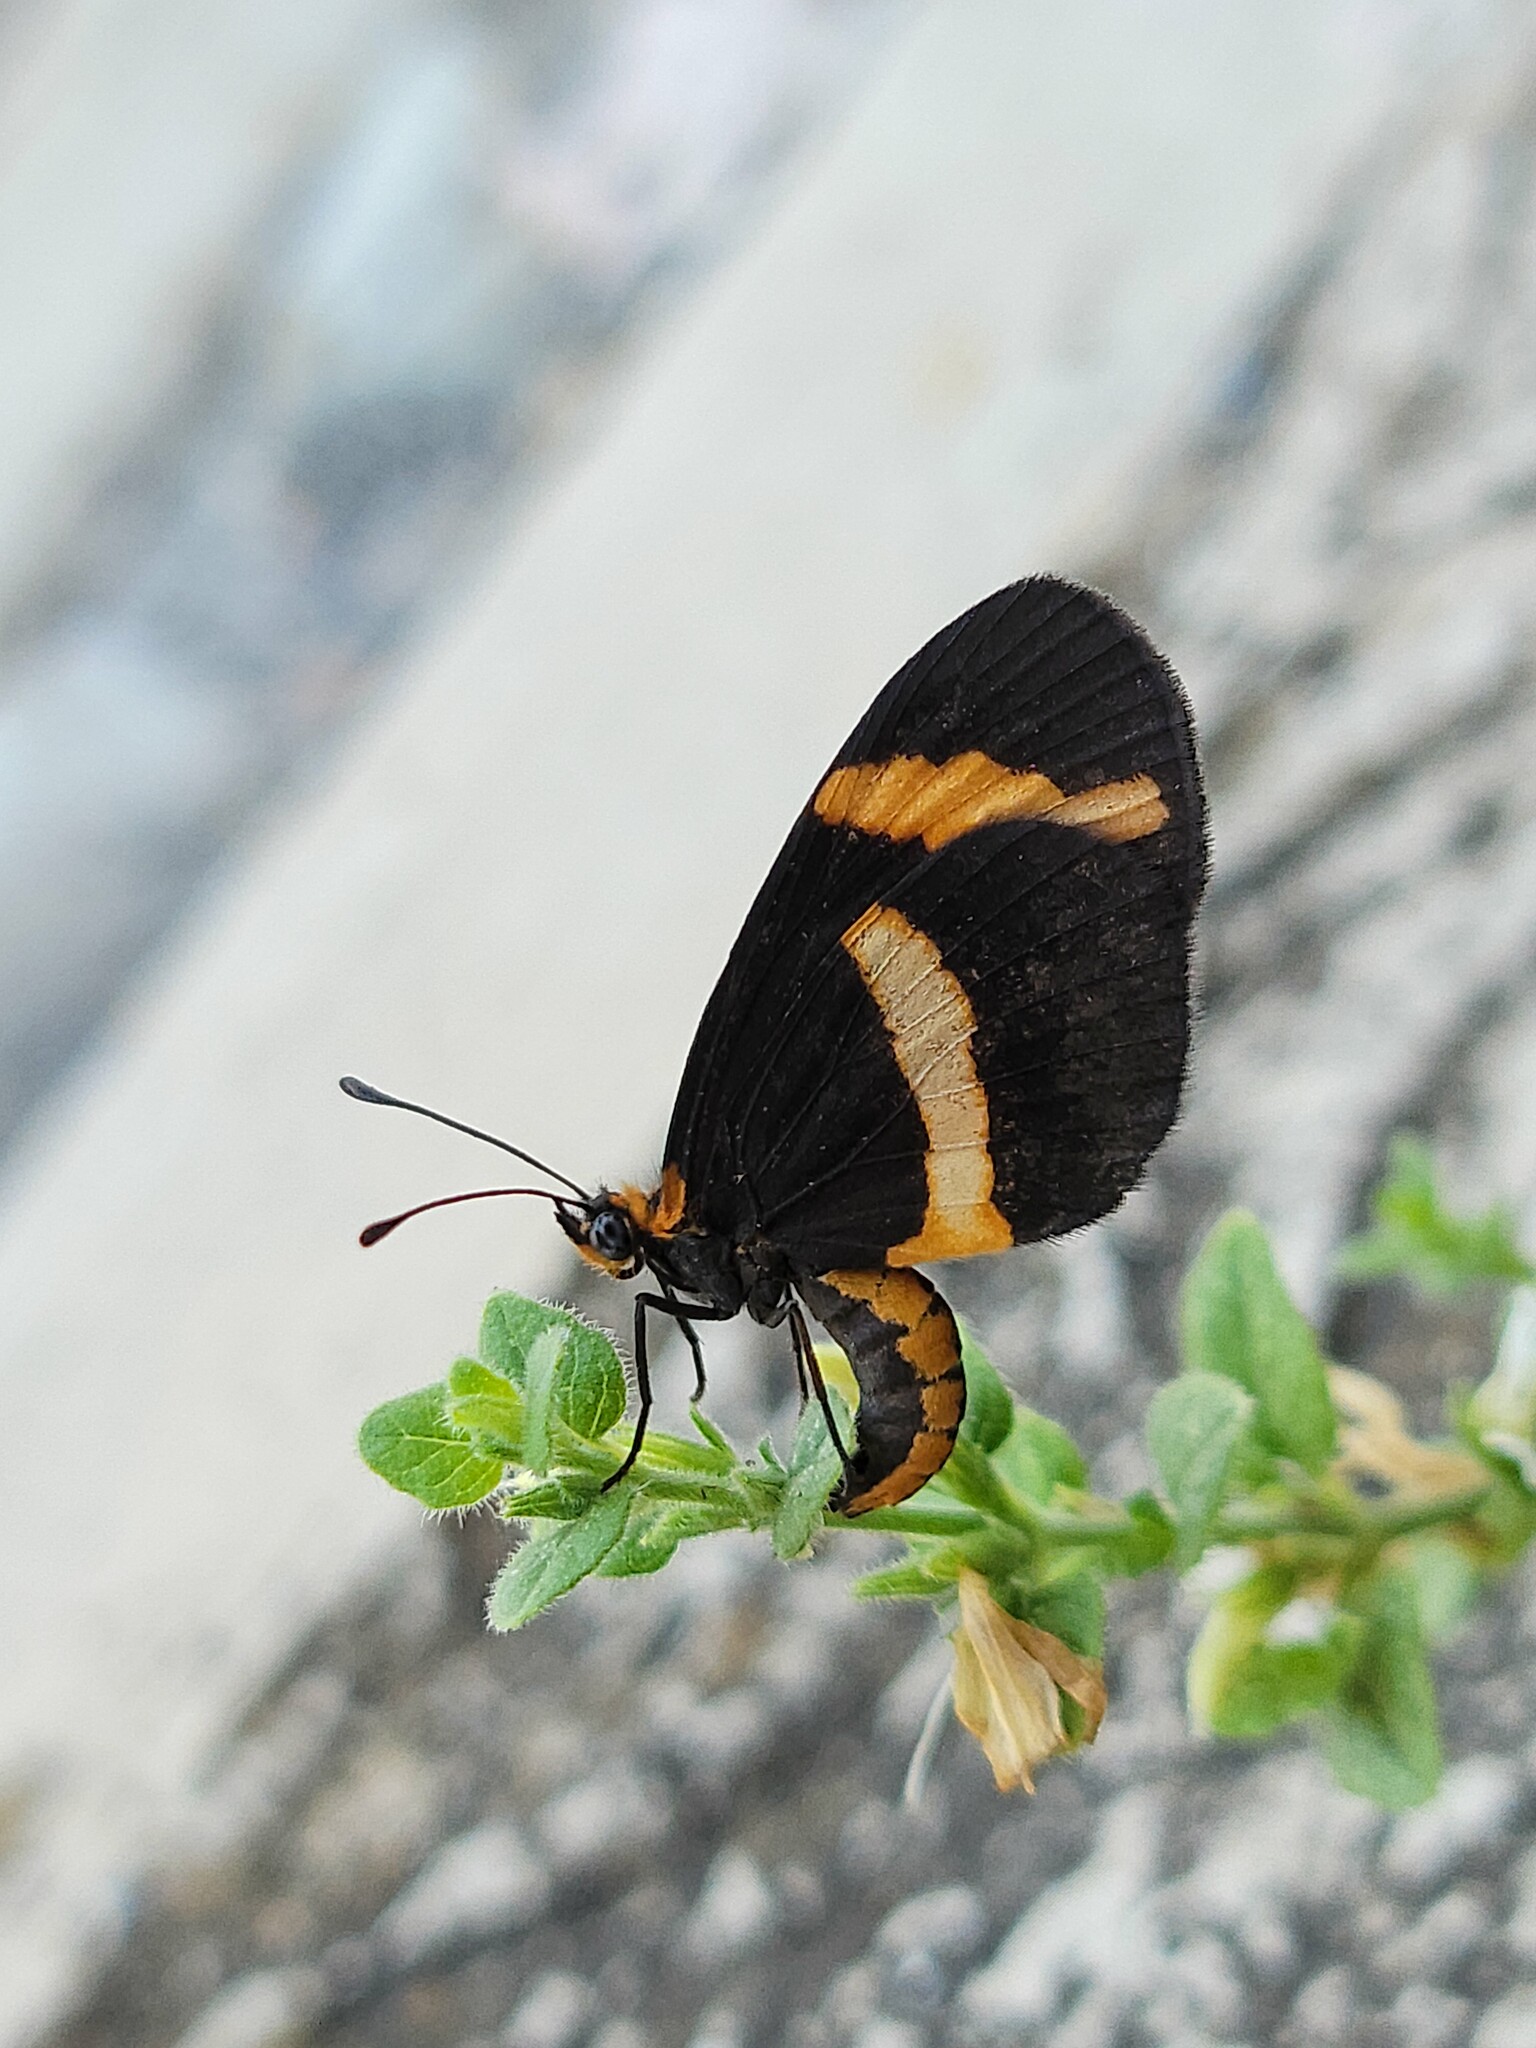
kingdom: Animalia
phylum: Arthropoda
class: Insecta
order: Lepidoptera
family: Nymphalidae
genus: Microtia
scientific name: Microtia elva
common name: Elf
